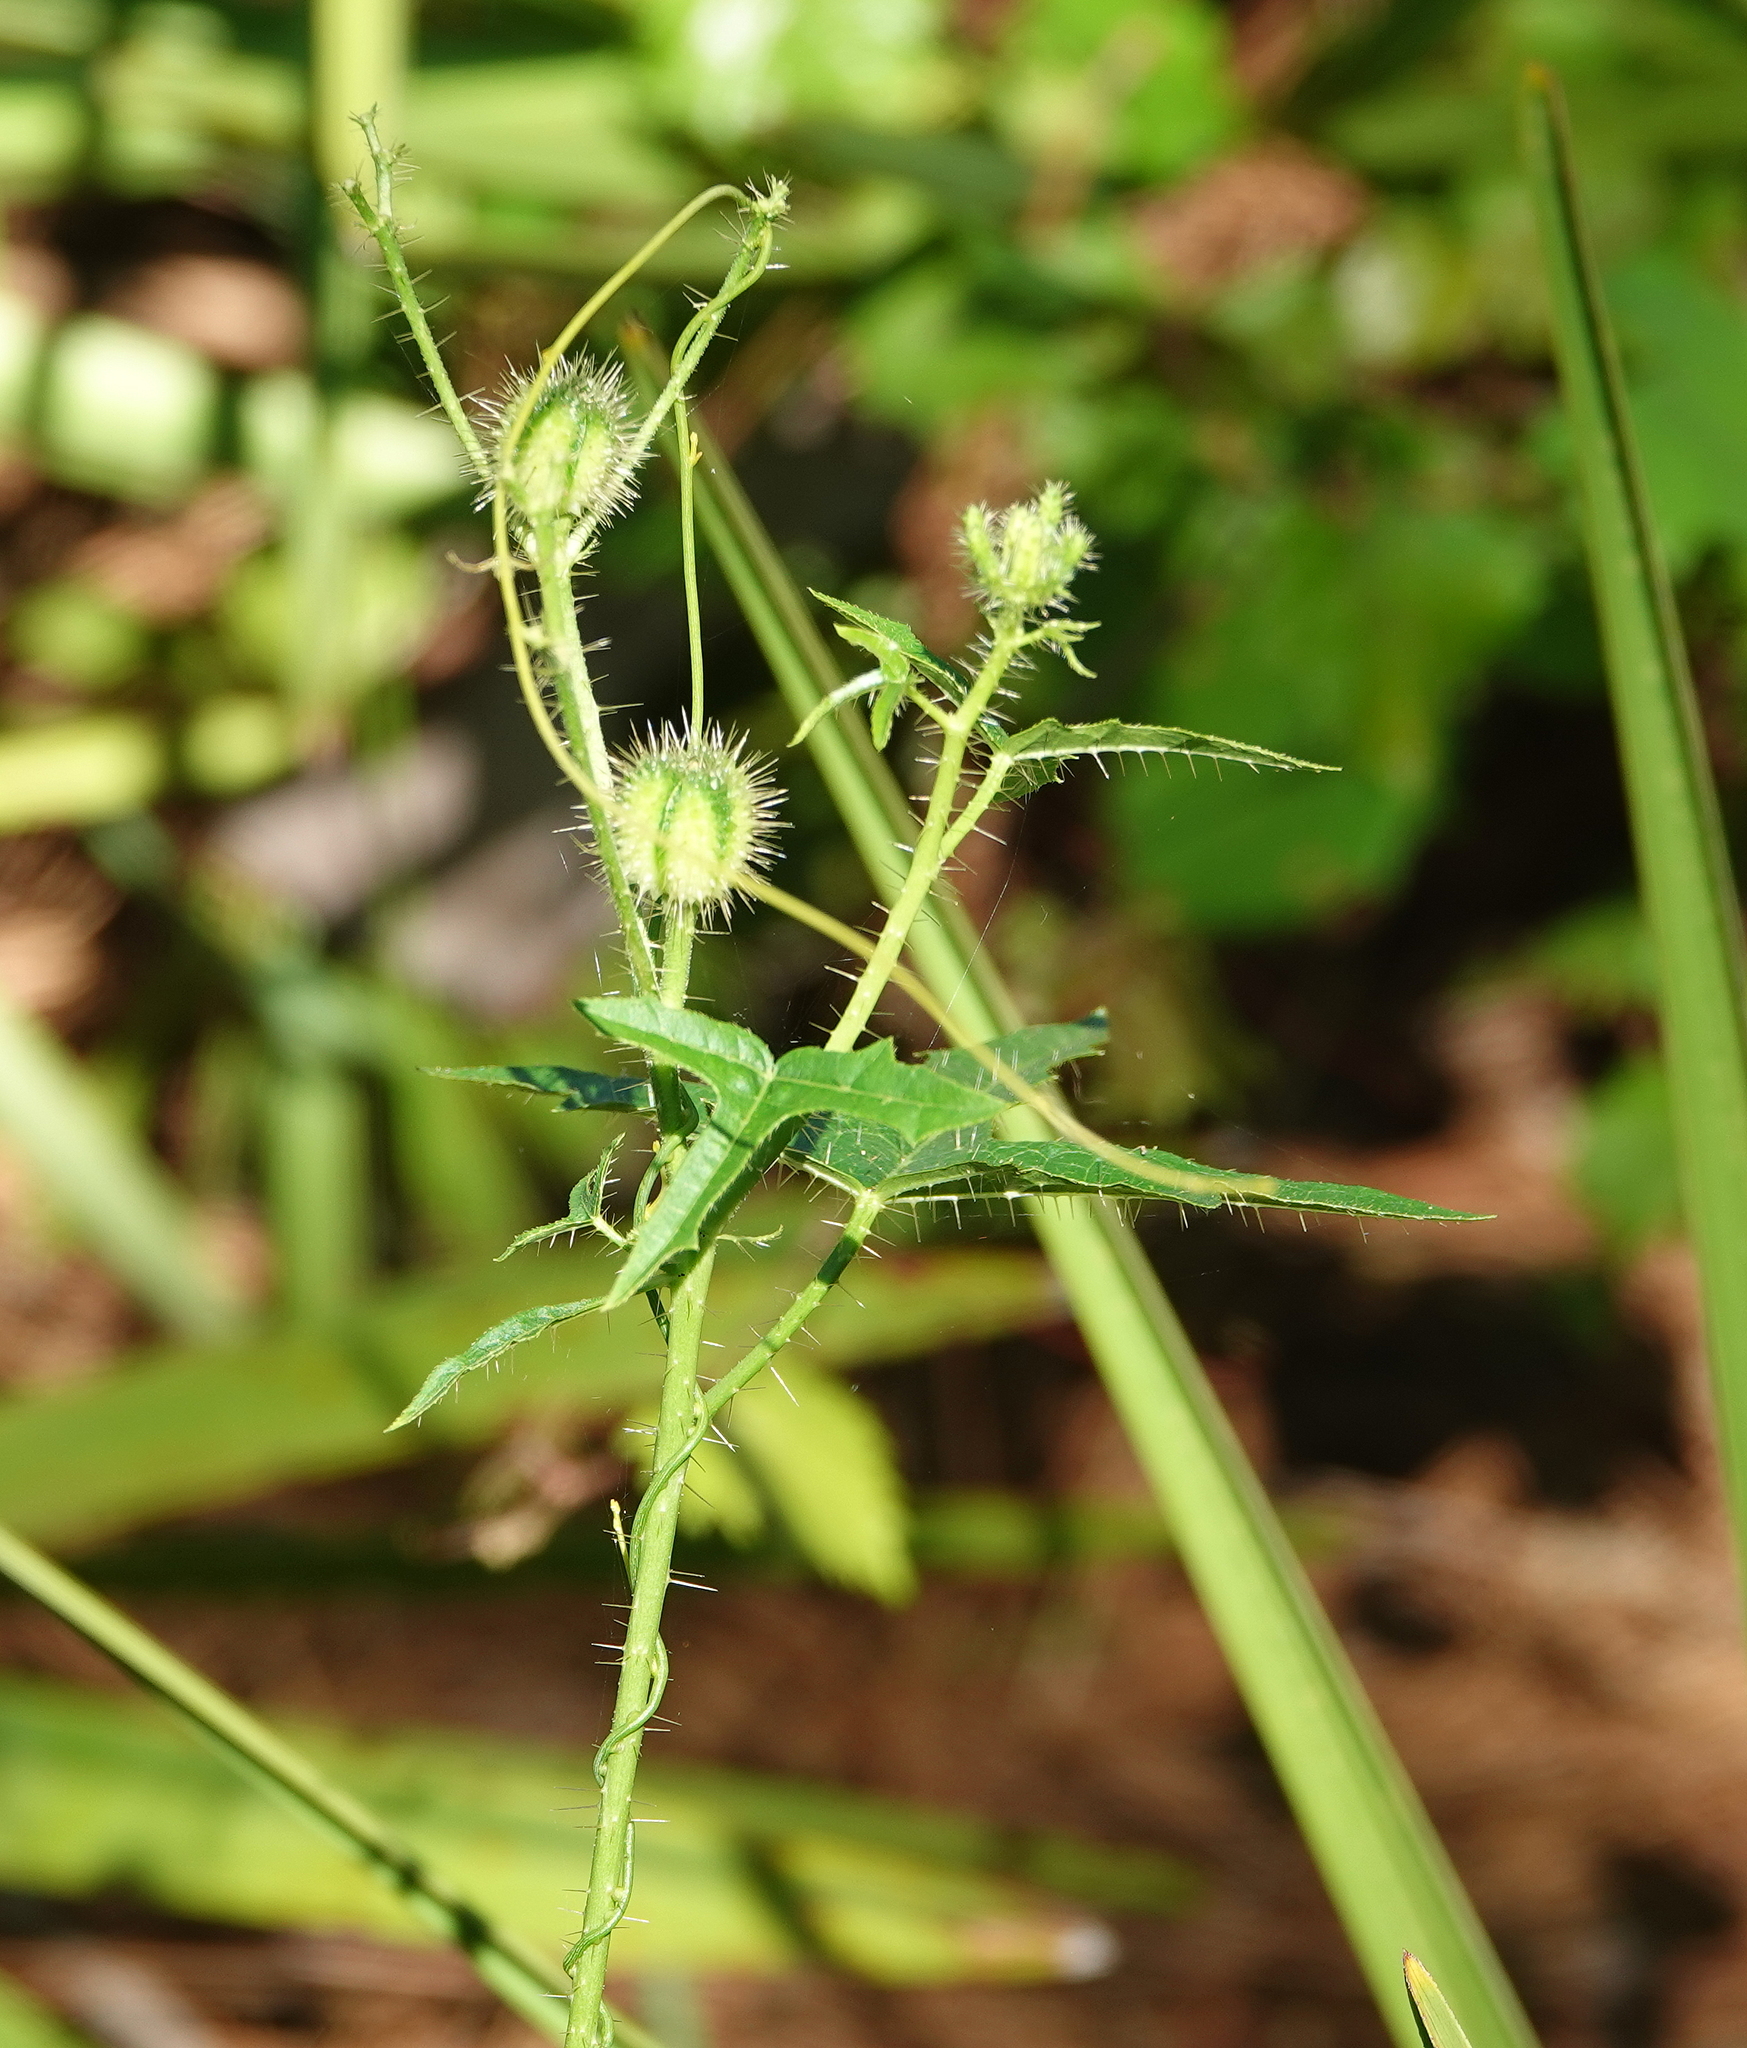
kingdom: Plantae
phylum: Tracheophyta
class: Magnoliopsida
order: Malpighiales
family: Euphorbiaceae
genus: Cnidoscolus
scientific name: Cnidoscolus stimulosus
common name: Bull-nettle
